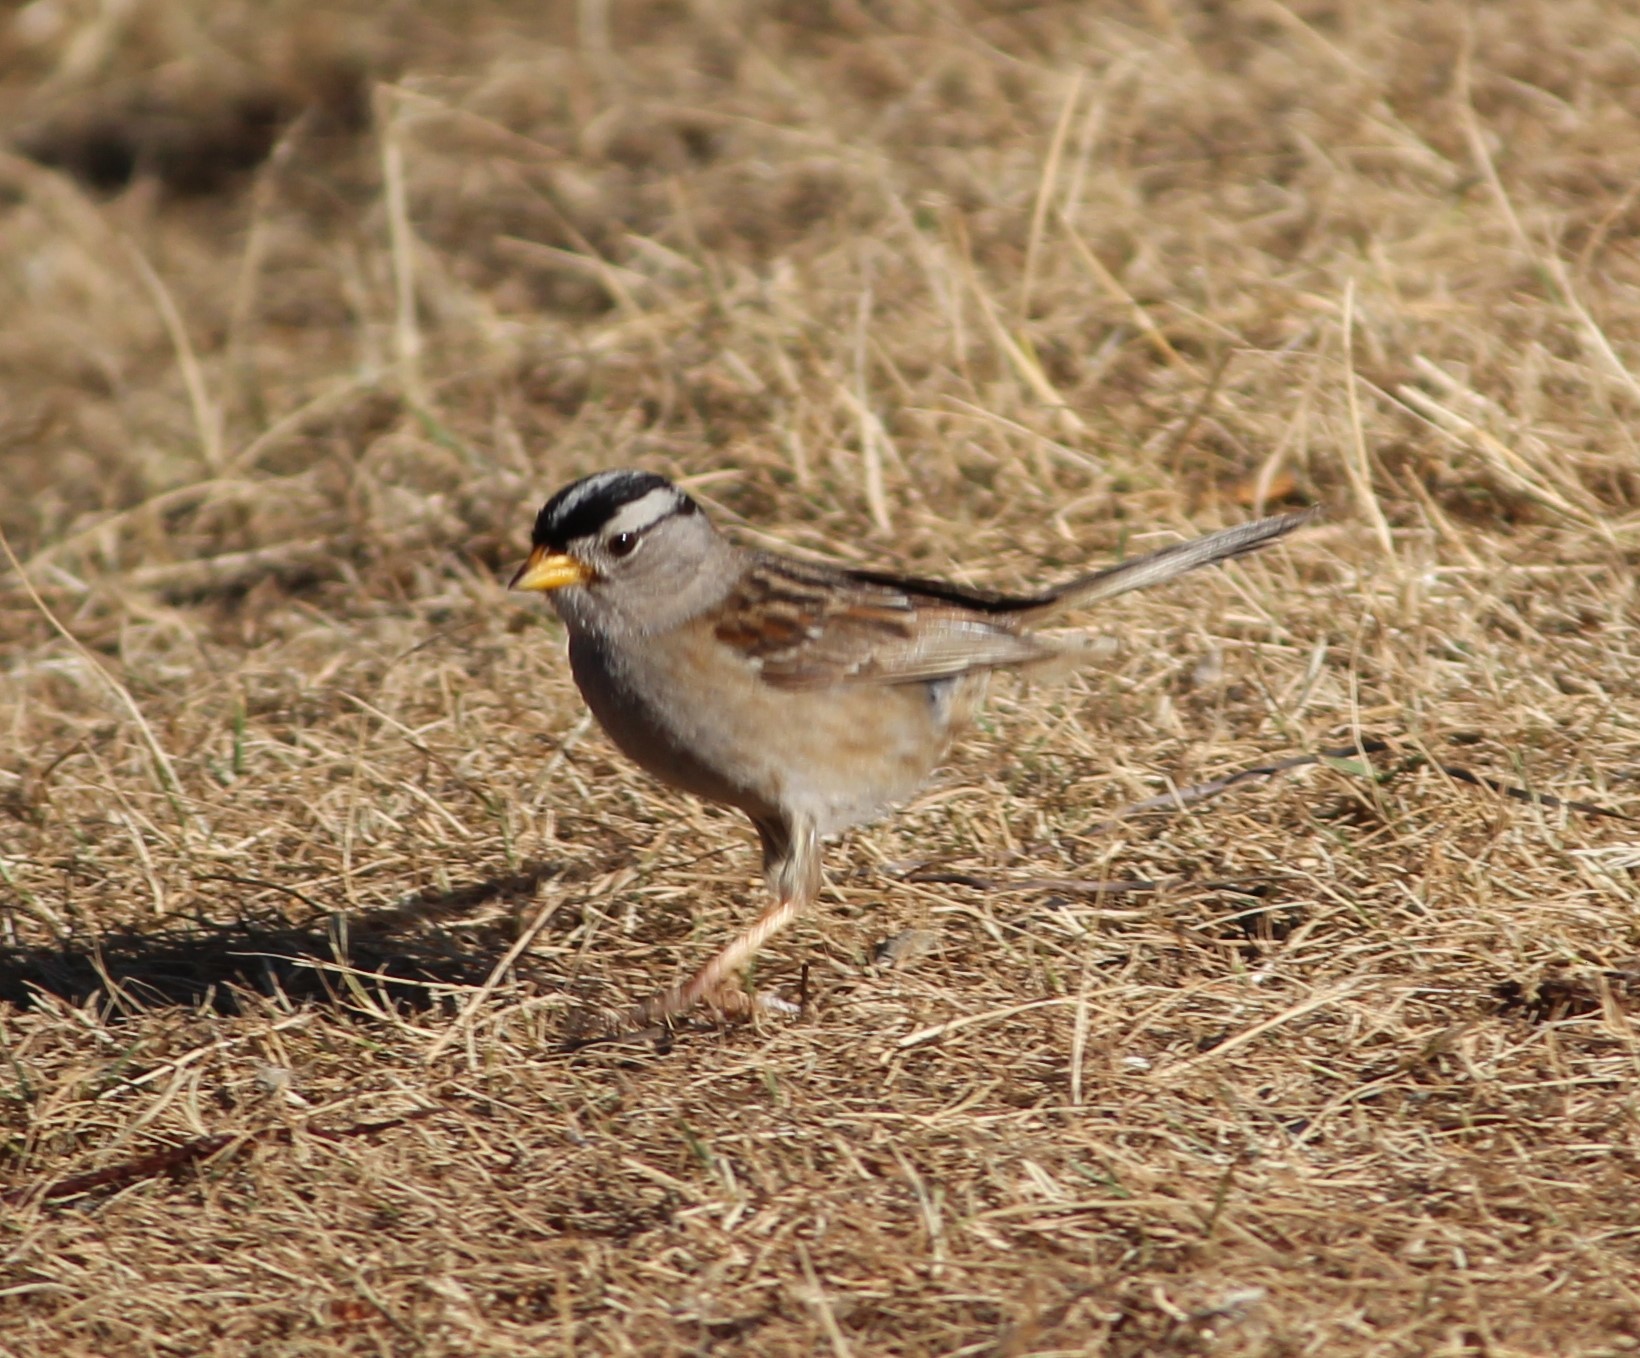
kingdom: Animalia
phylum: Chordata
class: Aves
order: Passeriformes
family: Passerellidae
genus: Zonotrichia
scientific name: Zonotrichia leucophrys
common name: White-crowned sparrow
